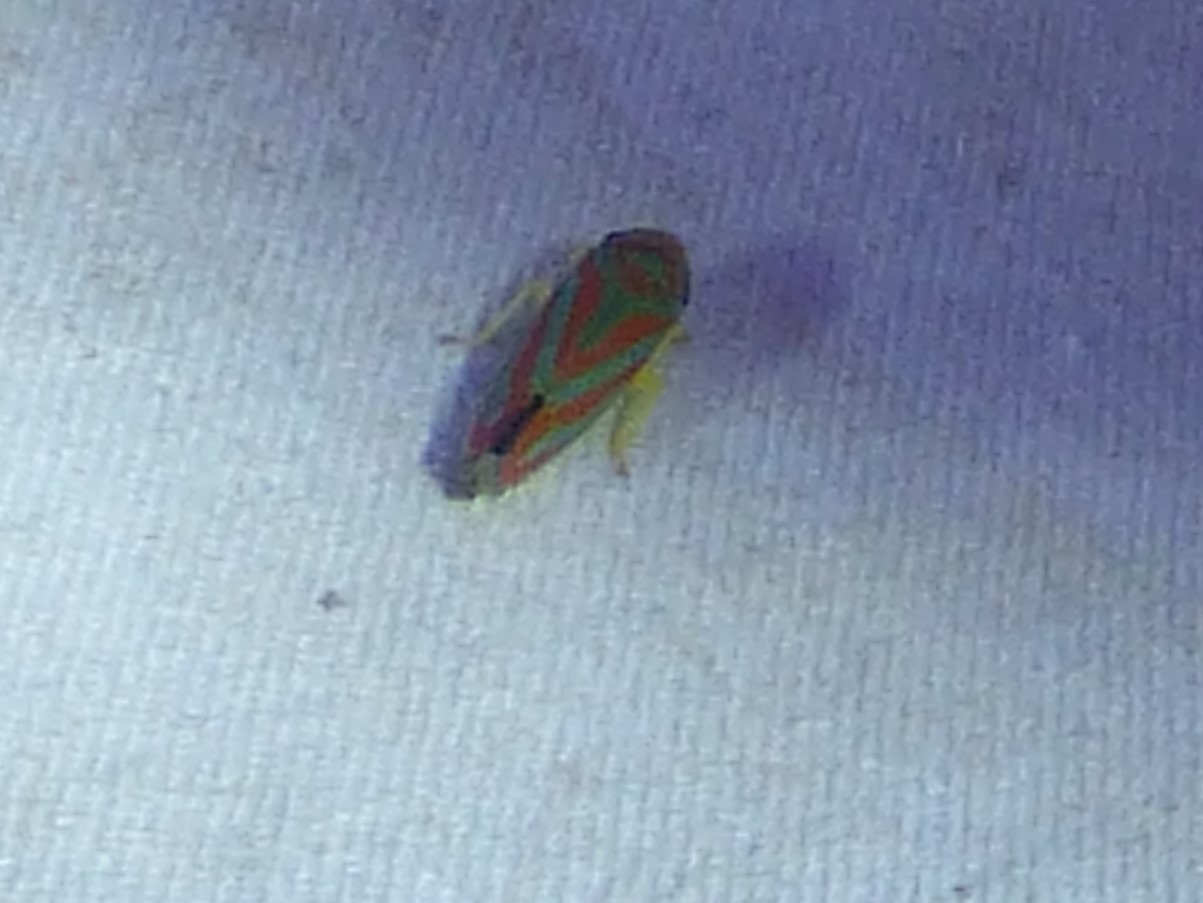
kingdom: Animalia
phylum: Arthropoda
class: Insecta
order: Hemiptera
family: Cicadellidae
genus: Graphocephala
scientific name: Graphocephala coccinea
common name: Candy-striped leafhopper
